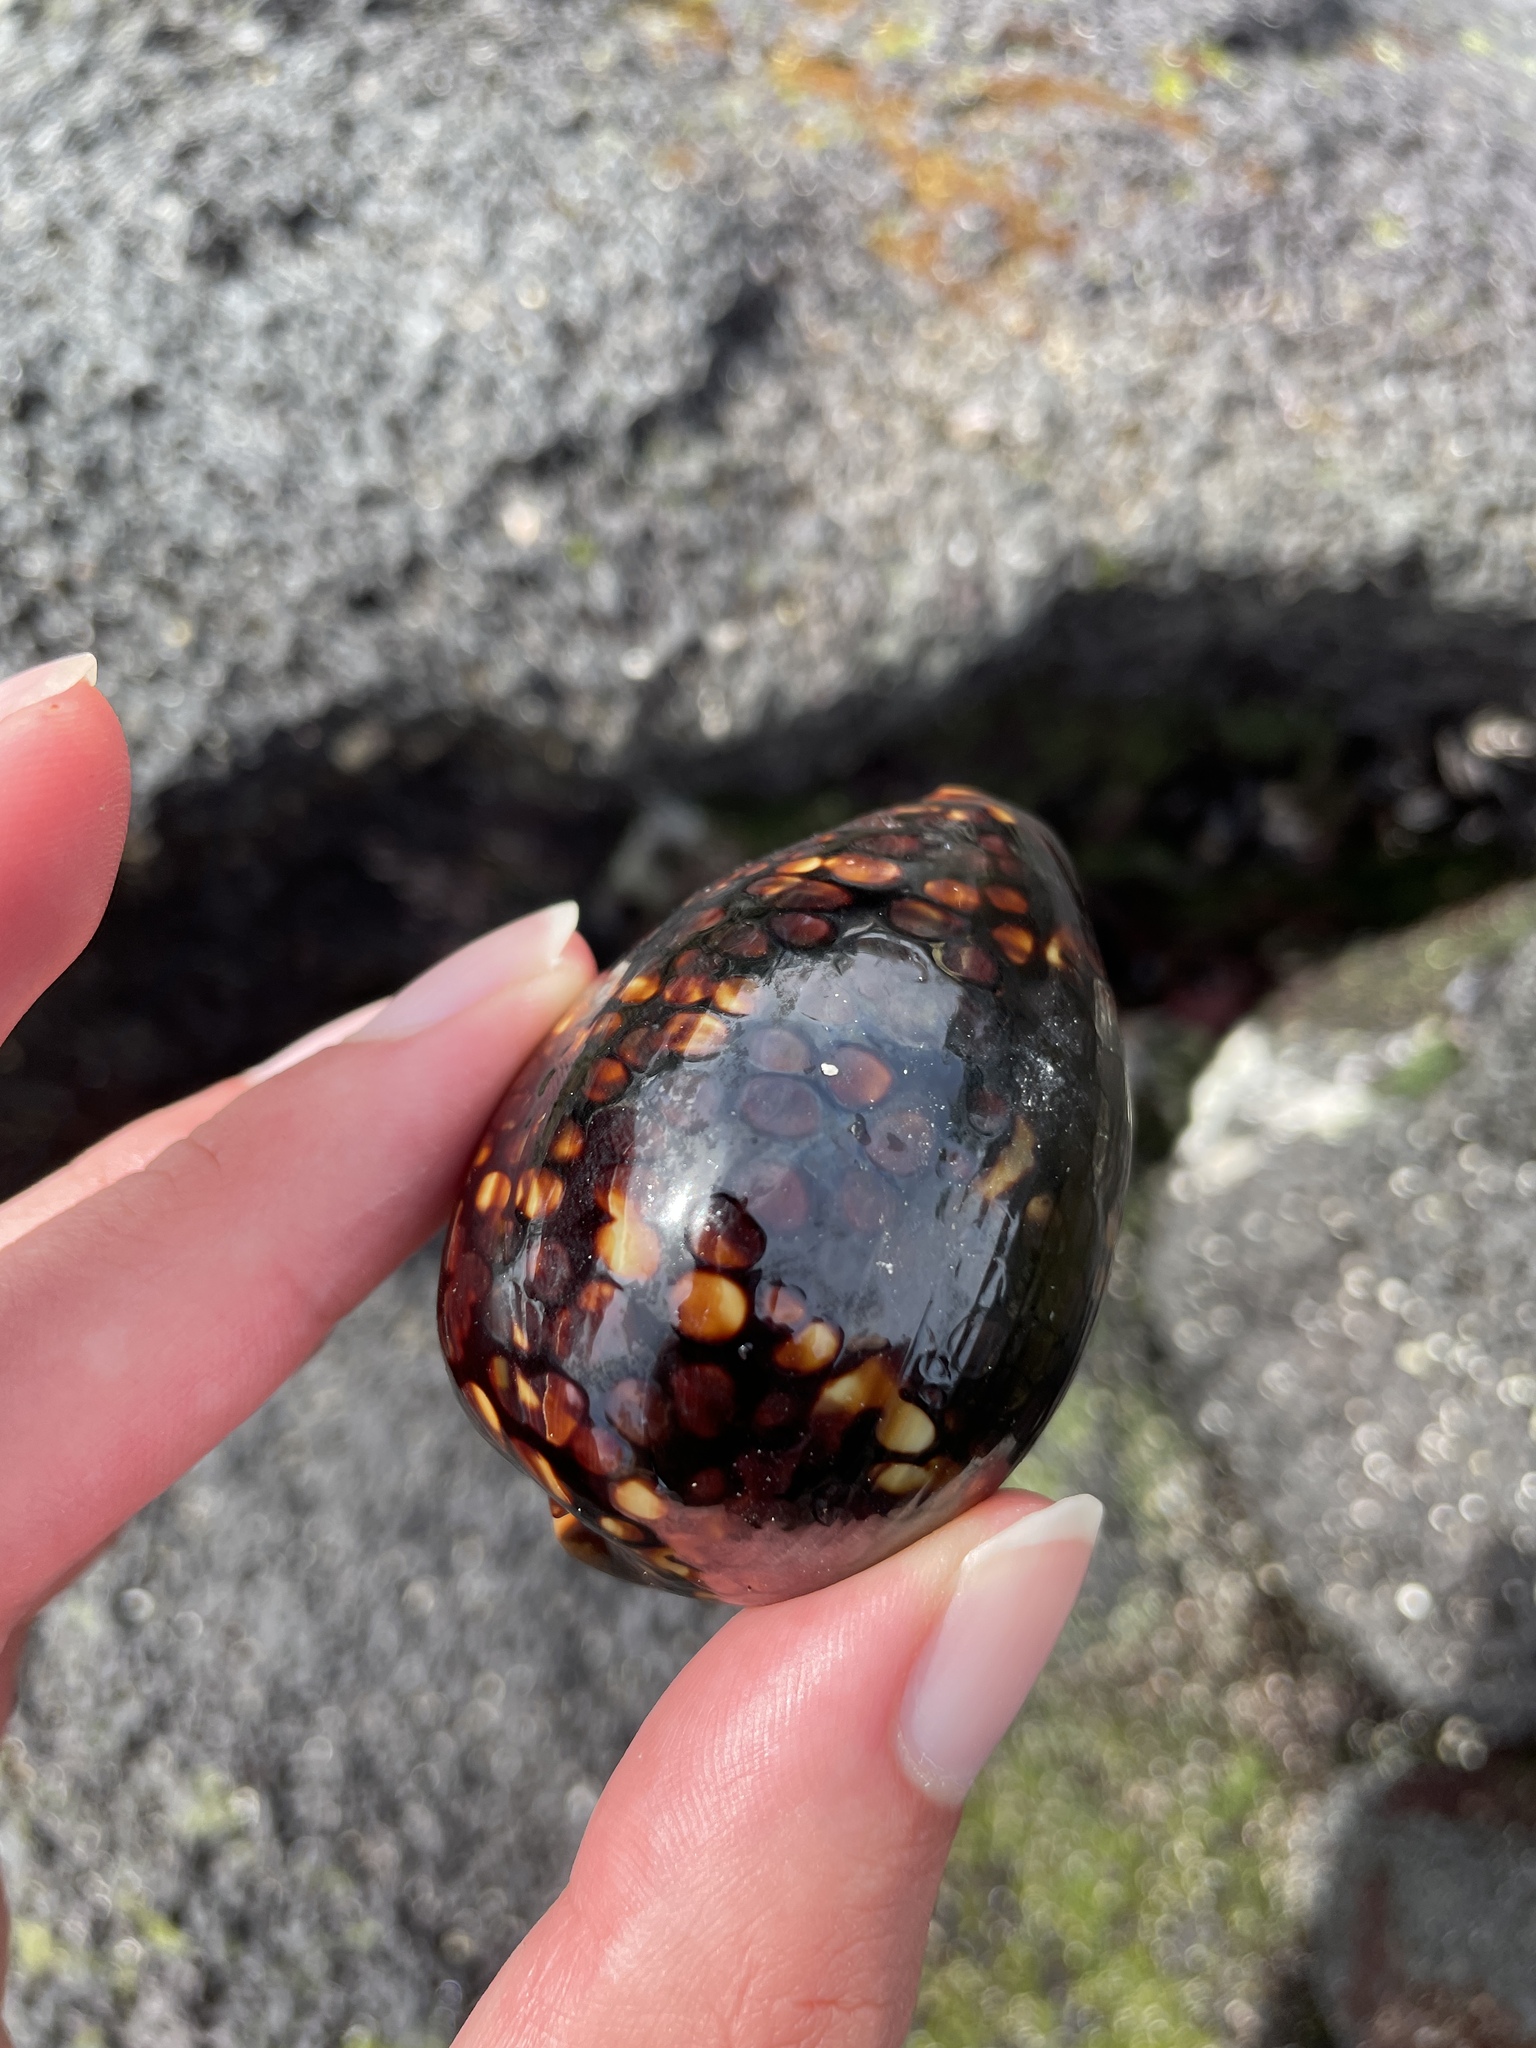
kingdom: Animalia
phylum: Mollusca
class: Gastropoda
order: Littorinimorpha
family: Cypraeidae
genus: Mauritia
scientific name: Mauritia mauritiana
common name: Hump-backed cowrie
